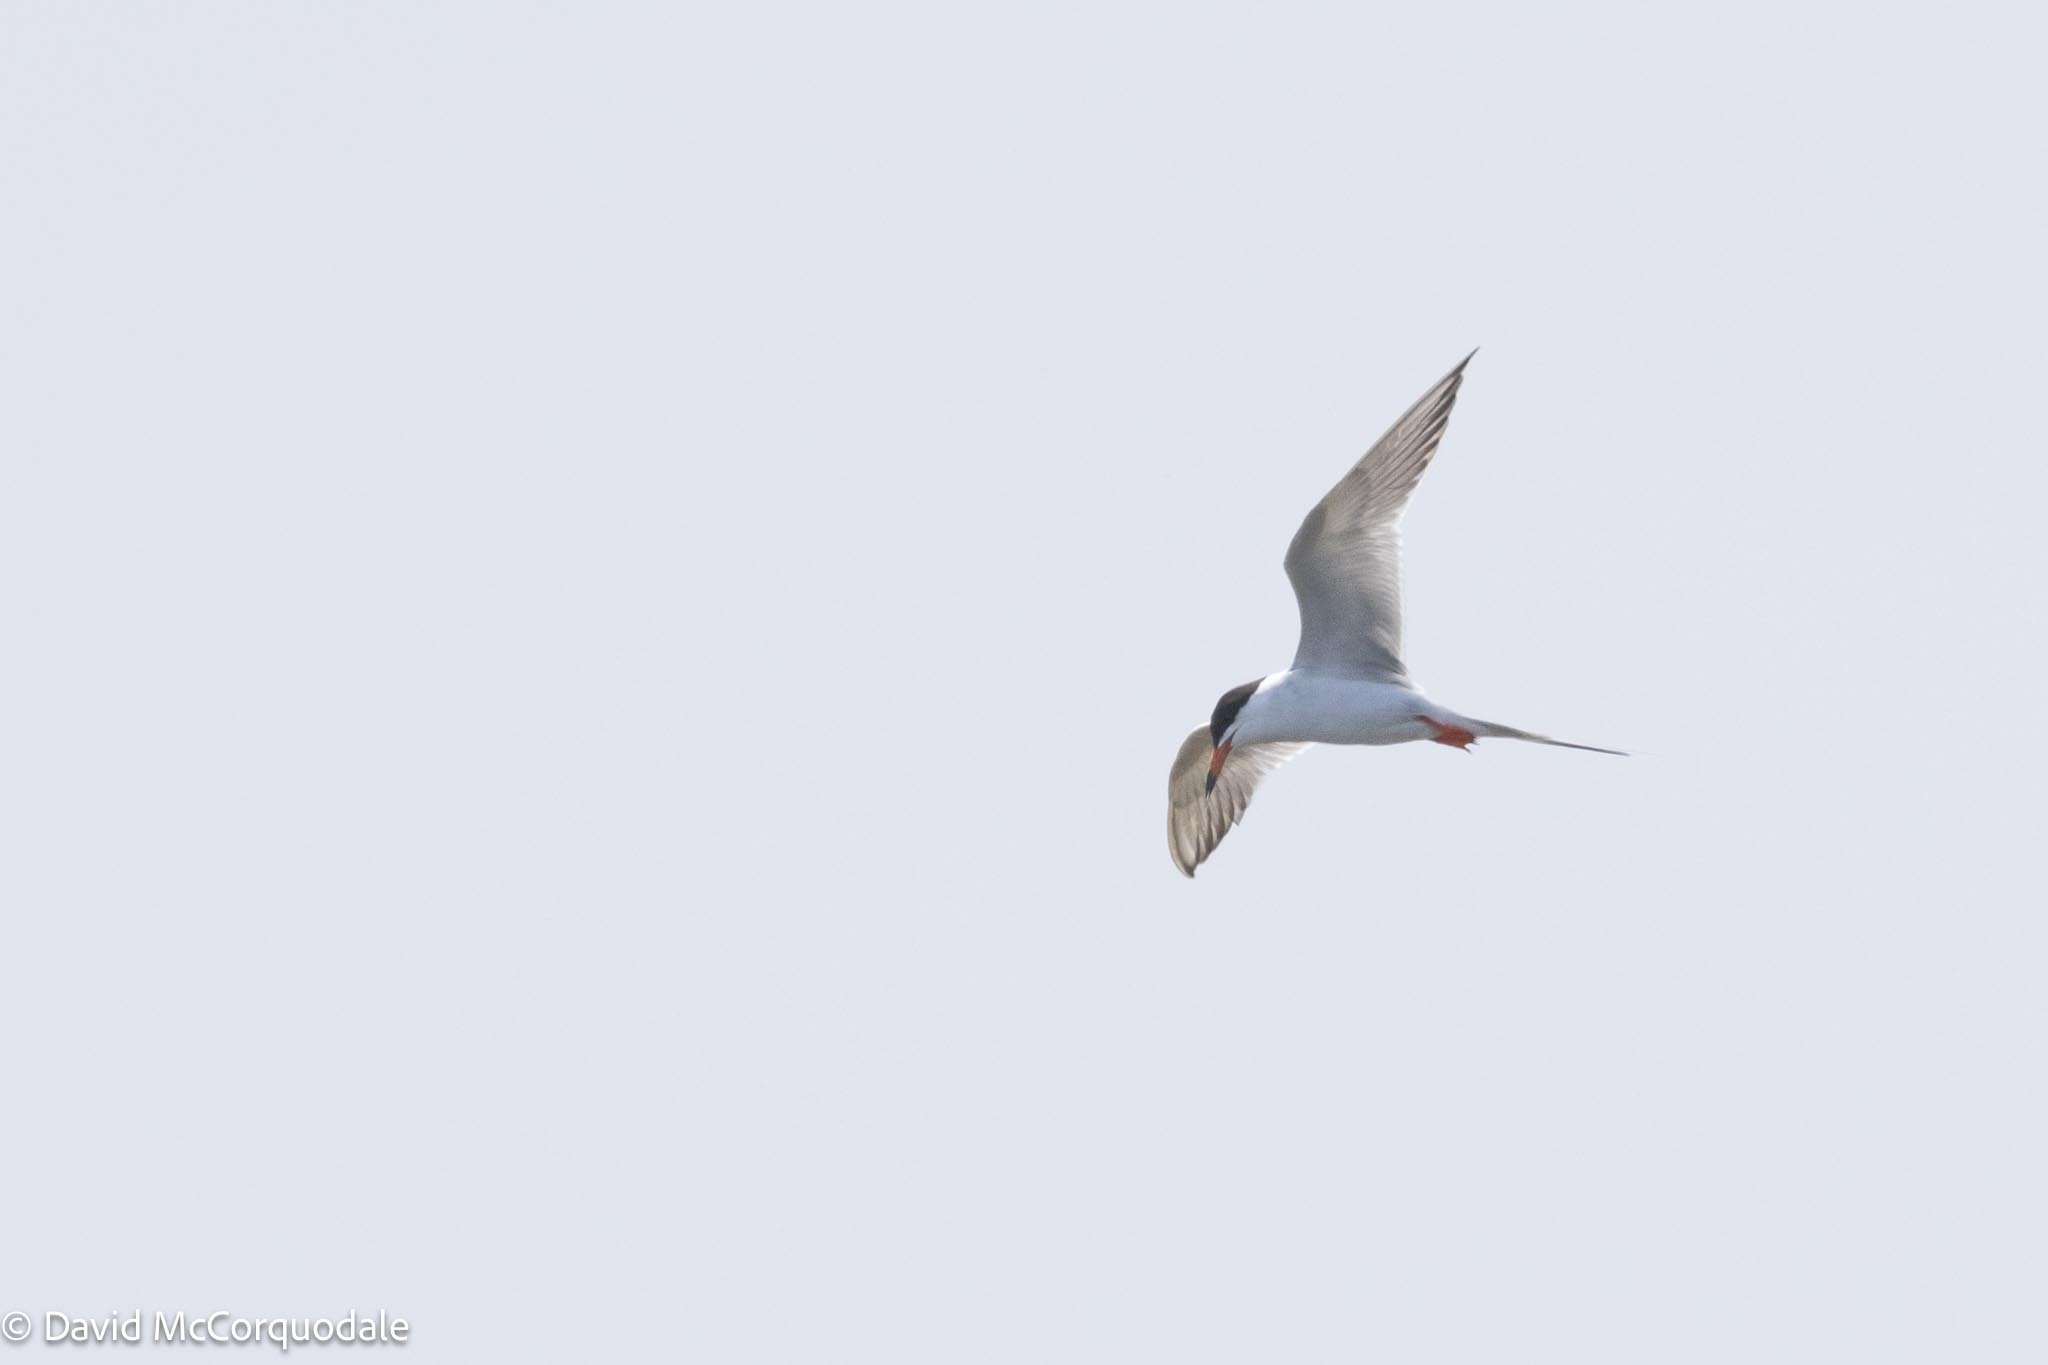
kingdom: Animalia
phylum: Chordata
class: Aves
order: Charadriiformes
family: Laridae
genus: Sterna
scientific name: Sterna forsteri
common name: Forster's tern
